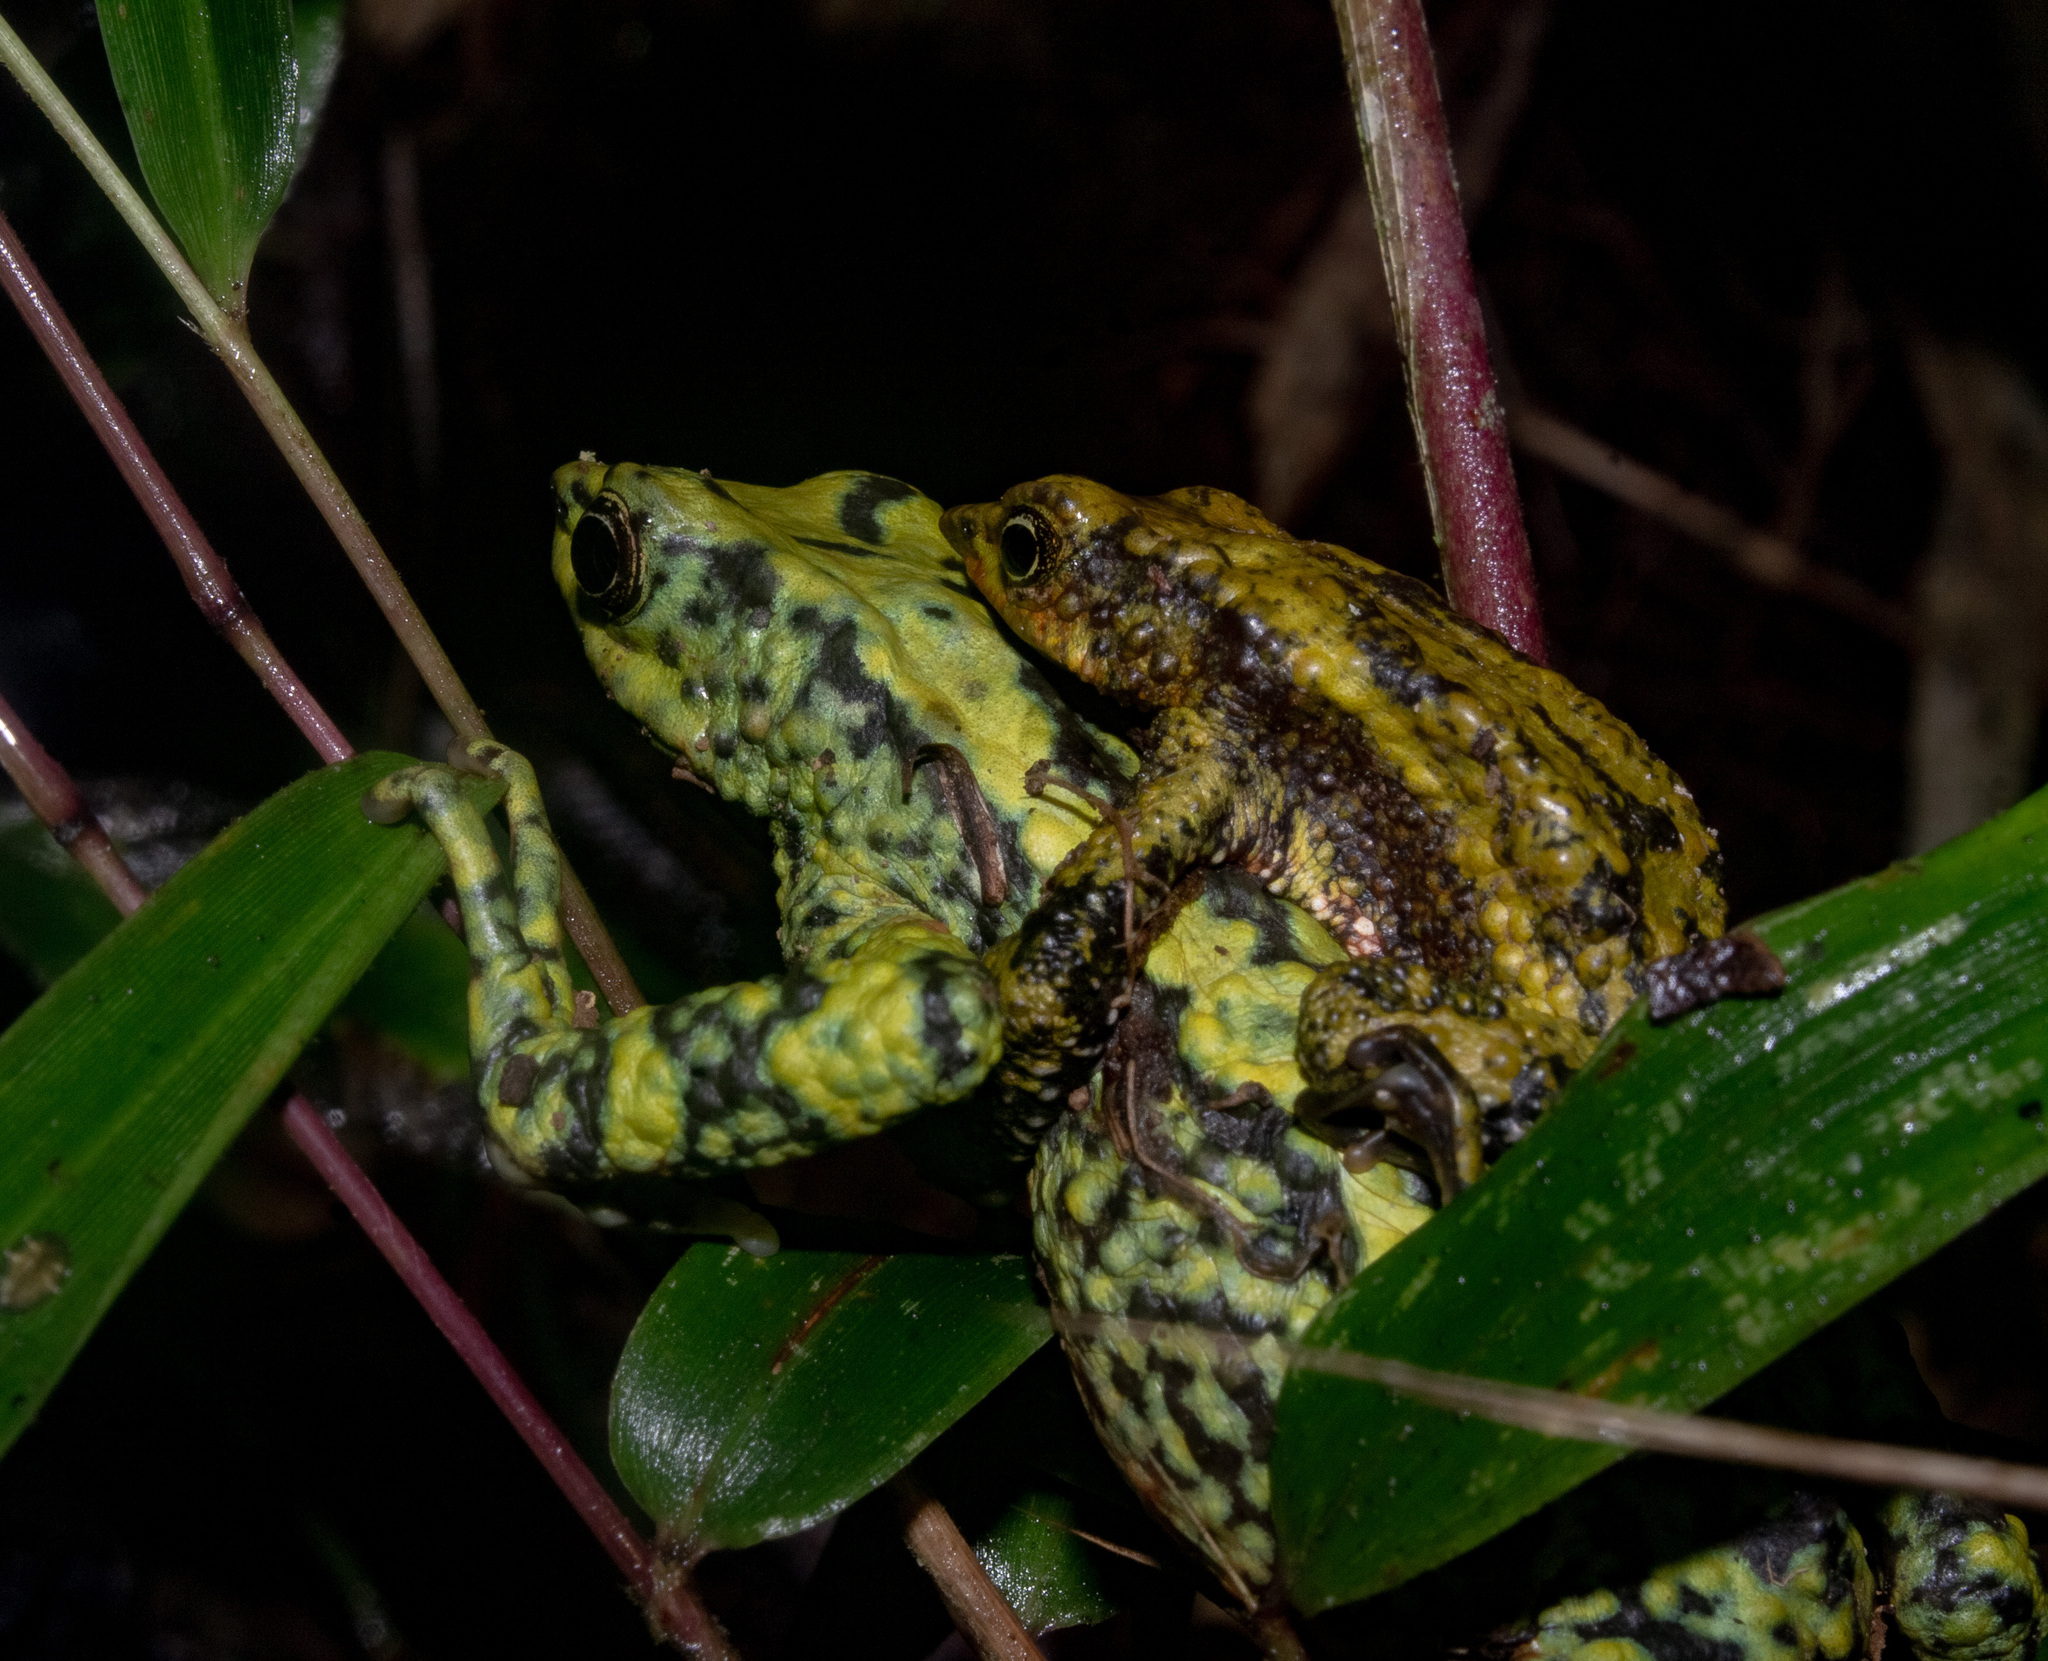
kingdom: Animalia
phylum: Chordata
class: Amphibia
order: Anura
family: Bufonidae
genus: Atelopus
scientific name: Atelopus laetissimus
